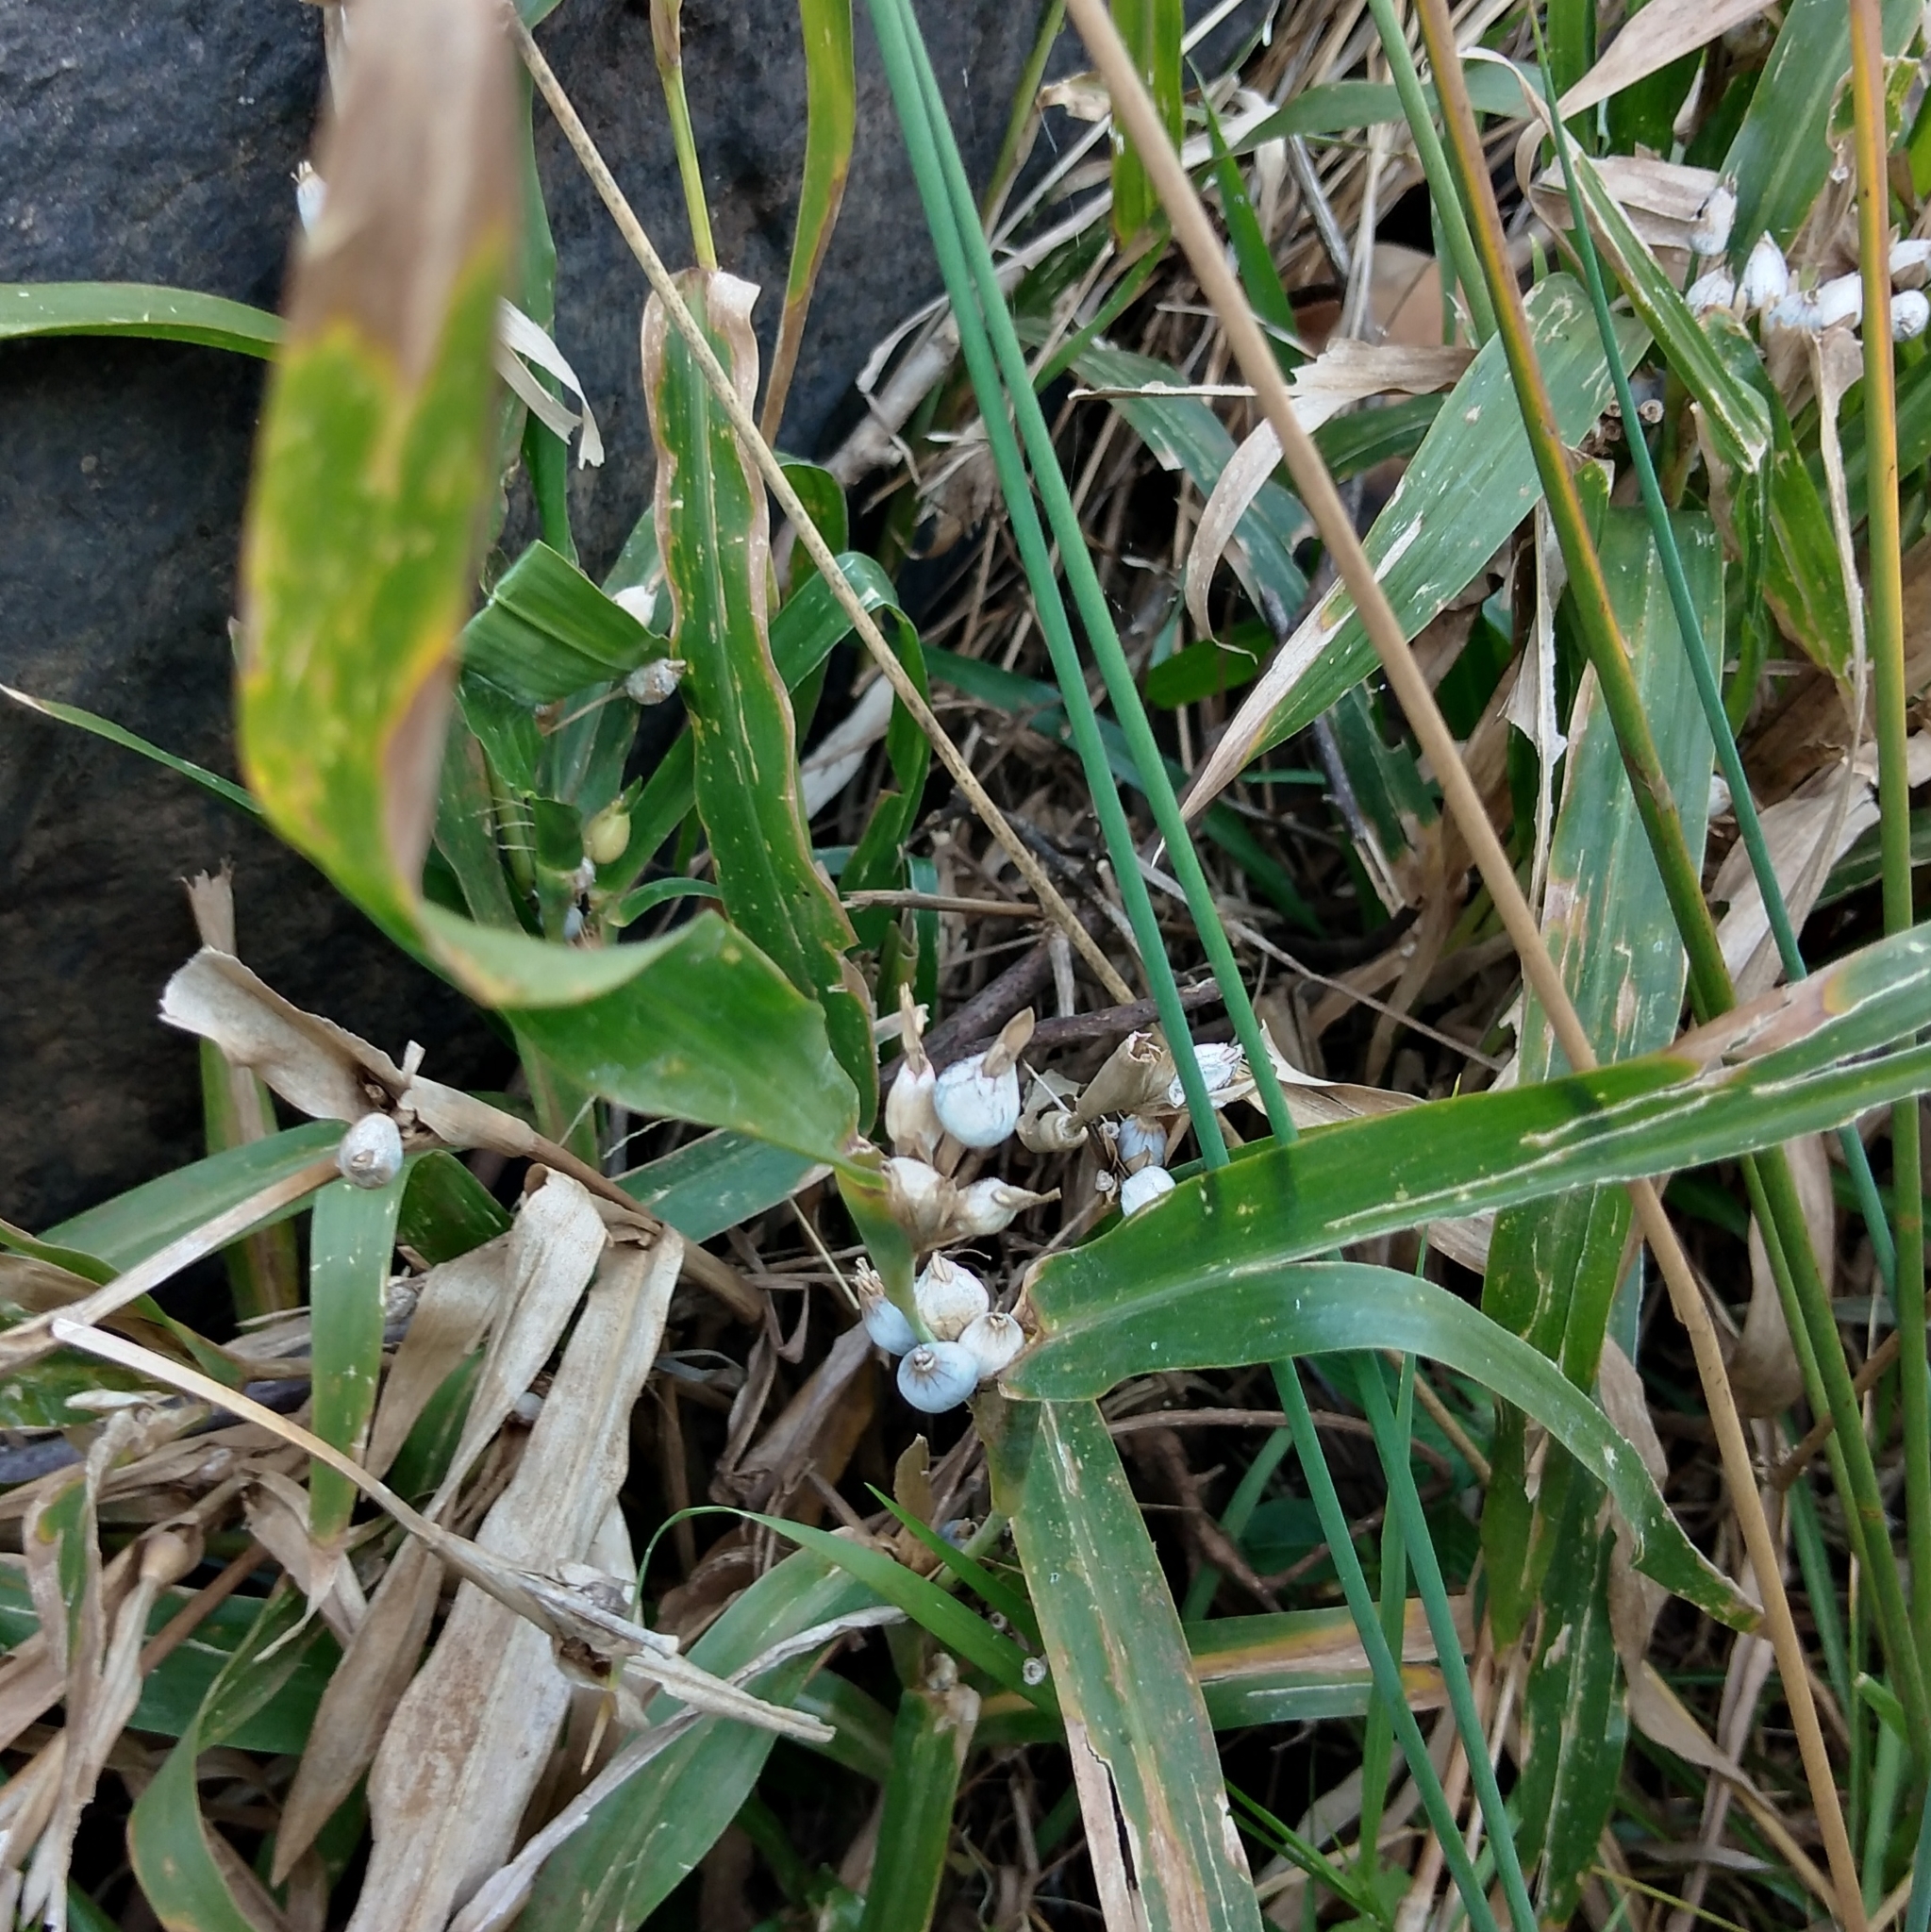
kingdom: Plantae
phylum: Tracheophyta
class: Liliopsida
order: Poales
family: Poaceae
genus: Coix
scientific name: Coix lacryma-jobi
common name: Job's tears
